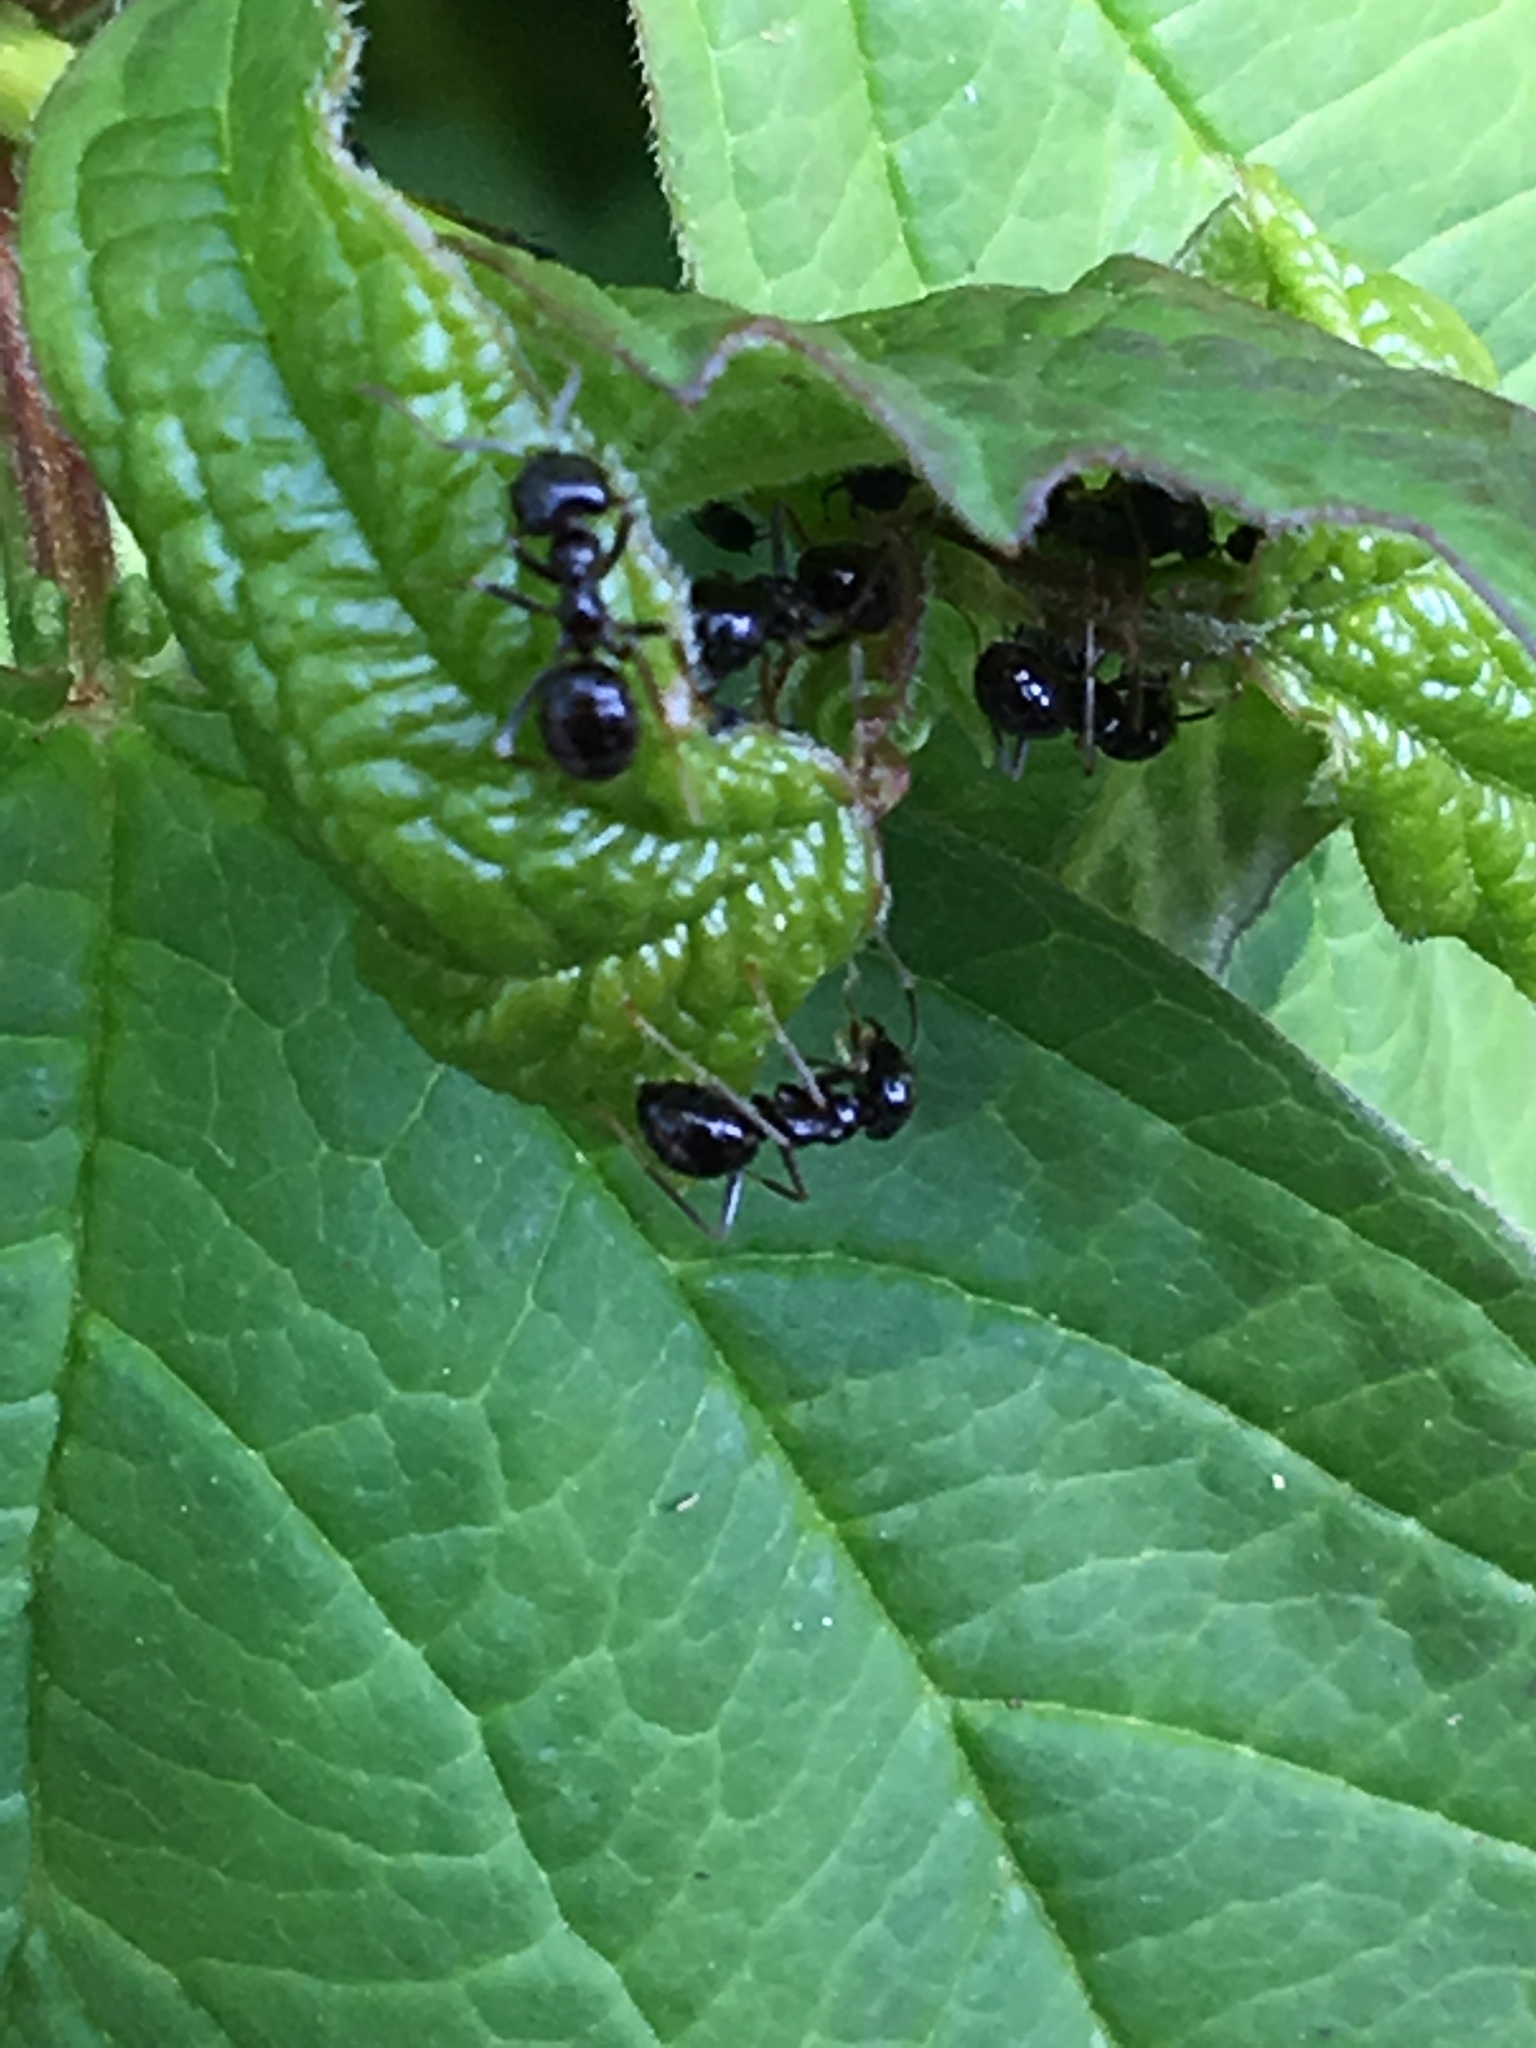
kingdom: Animalia
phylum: Arthropoda
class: Insecta
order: Hymenoptera
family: Formicidae
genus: Lasius
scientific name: Lasius fuliginosus
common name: Jet ant
